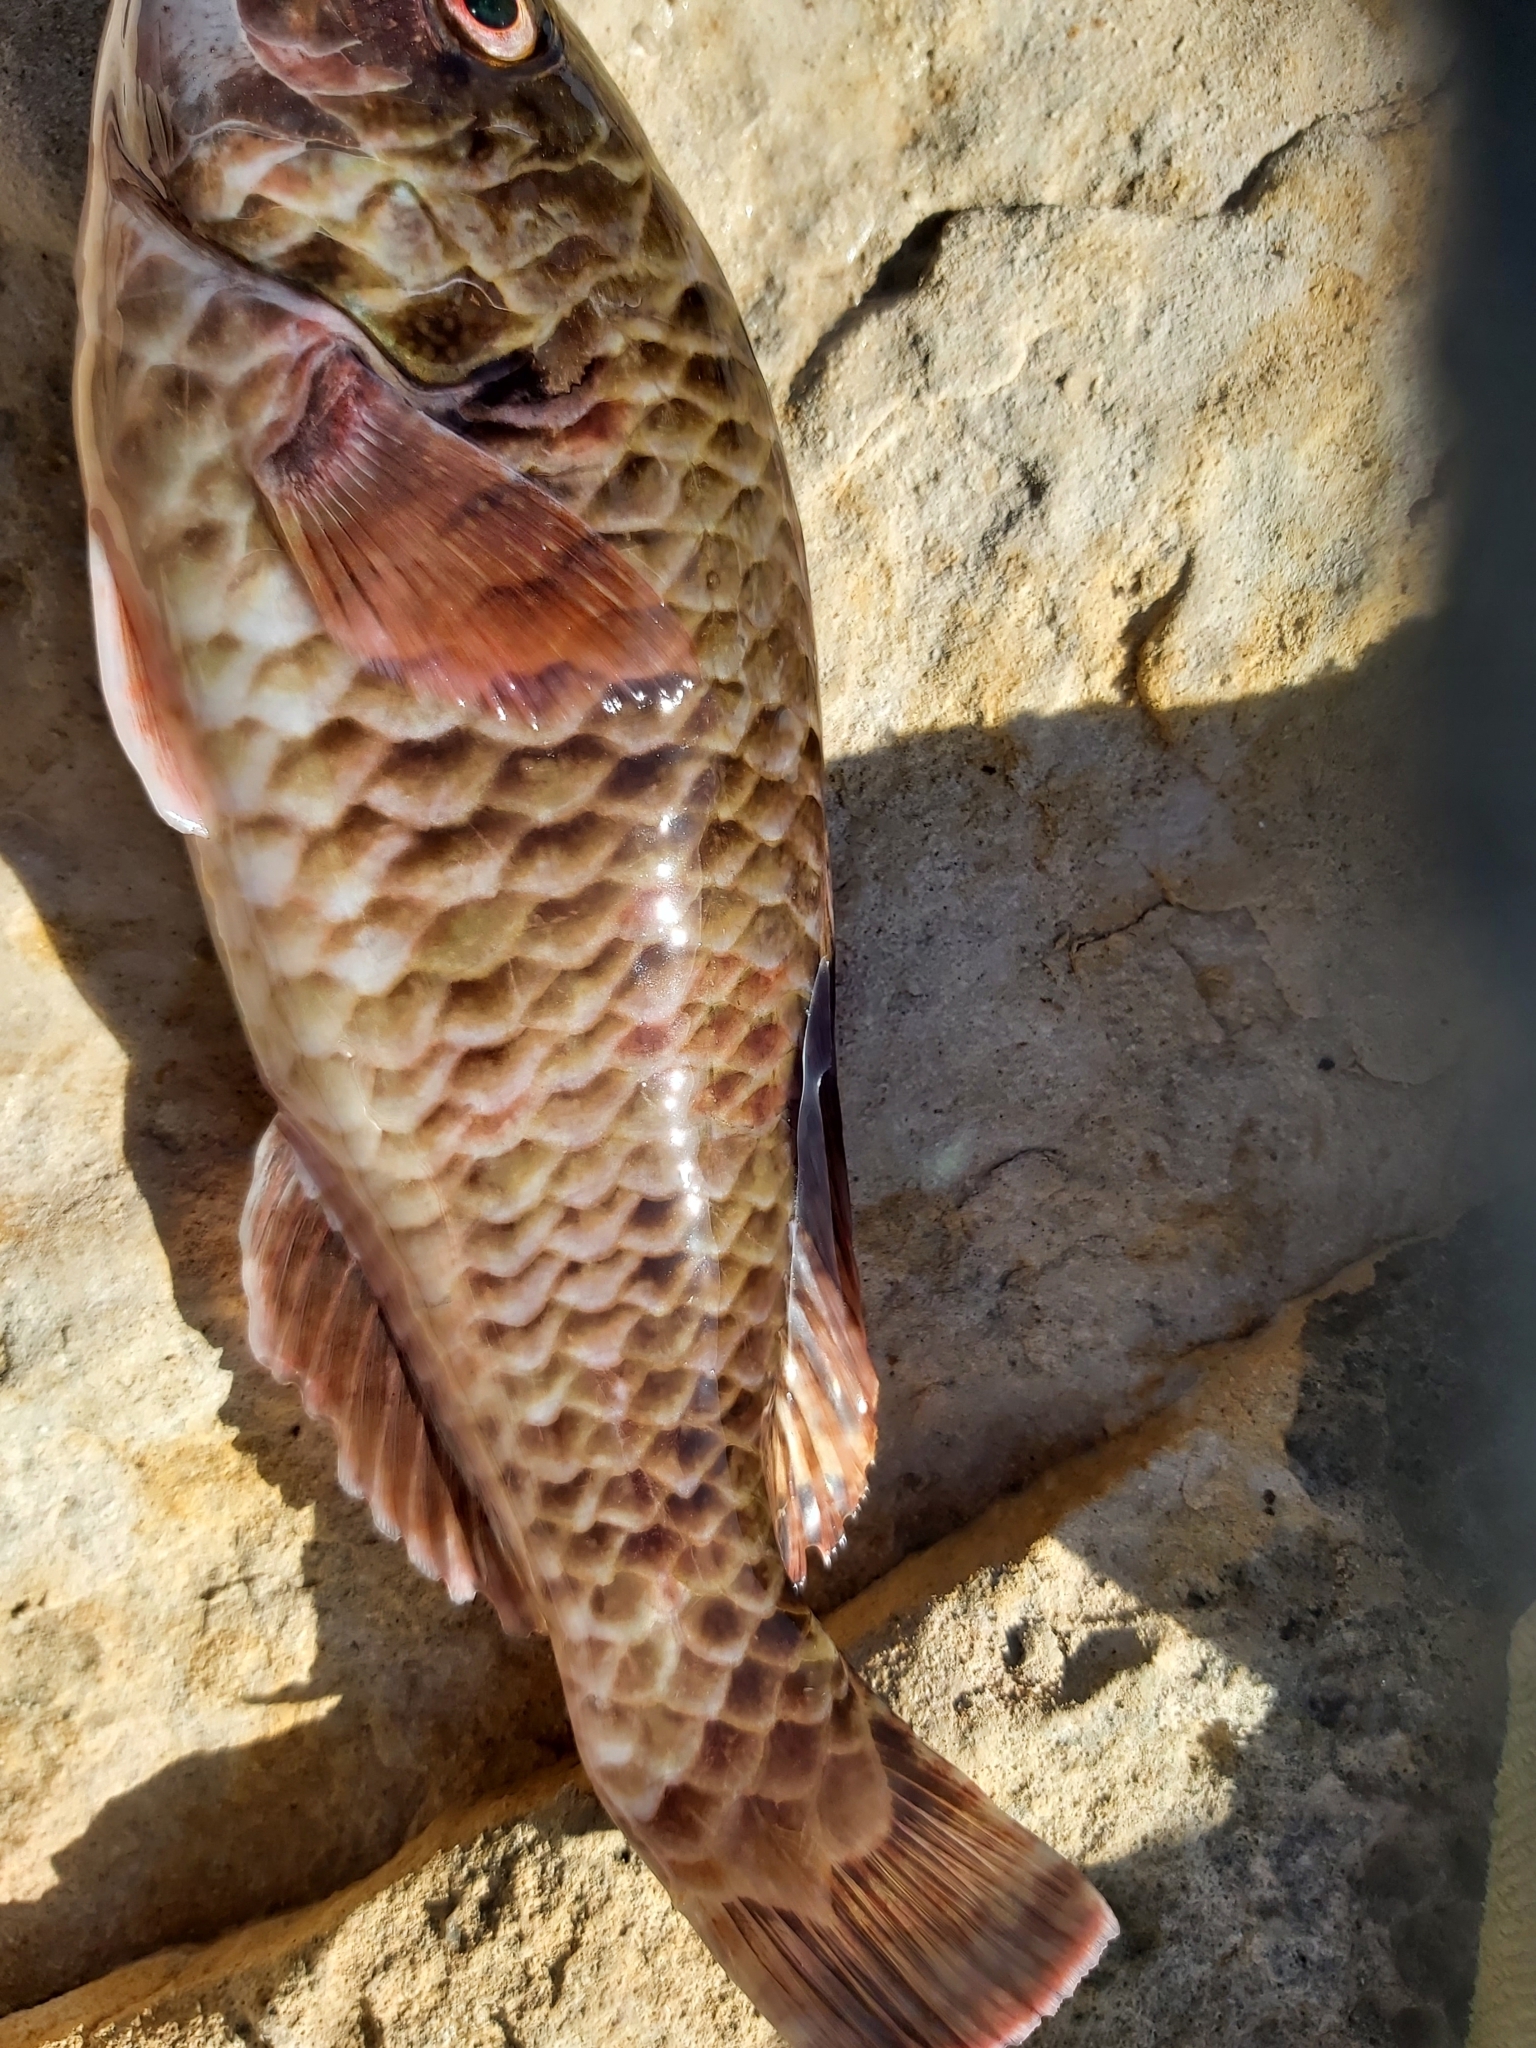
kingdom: Animalia
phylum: Chordata
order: Perciformes
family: Scaridae
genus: Sparisoma
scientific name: Sparisoma cretense
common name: Parrotfish
